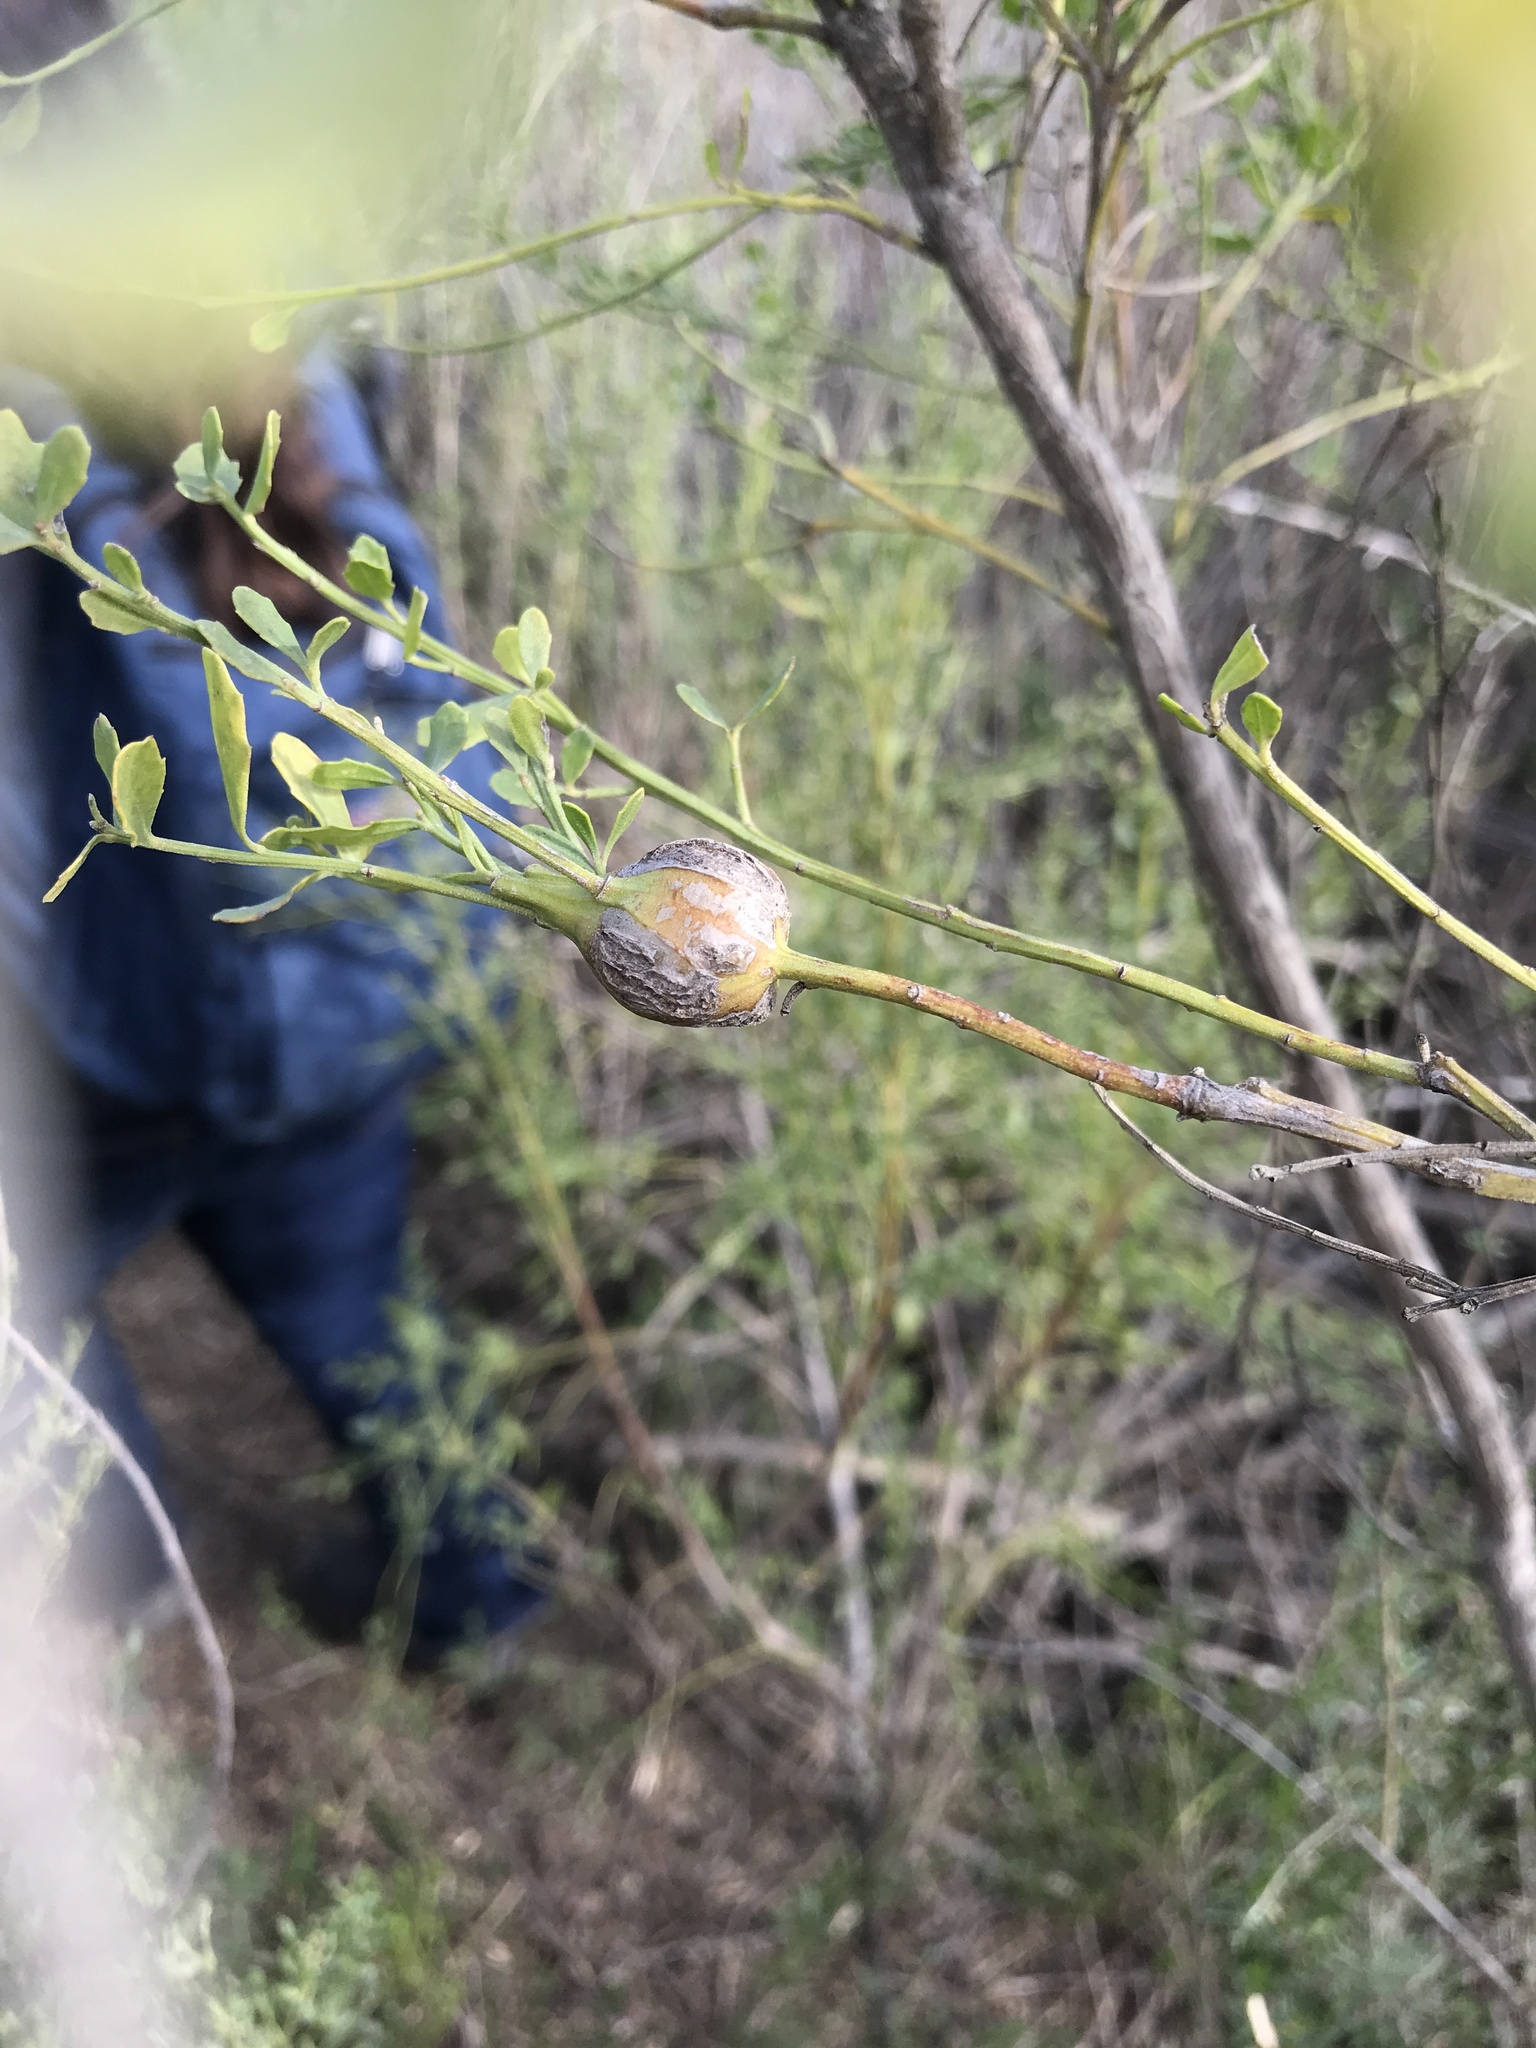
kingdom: Animalia
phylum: Arthropoda
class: Insecta
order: Lepidoptera
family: Gelechiidae
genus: Gnorimoschema
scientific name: Gnorimoschema baccharisella
